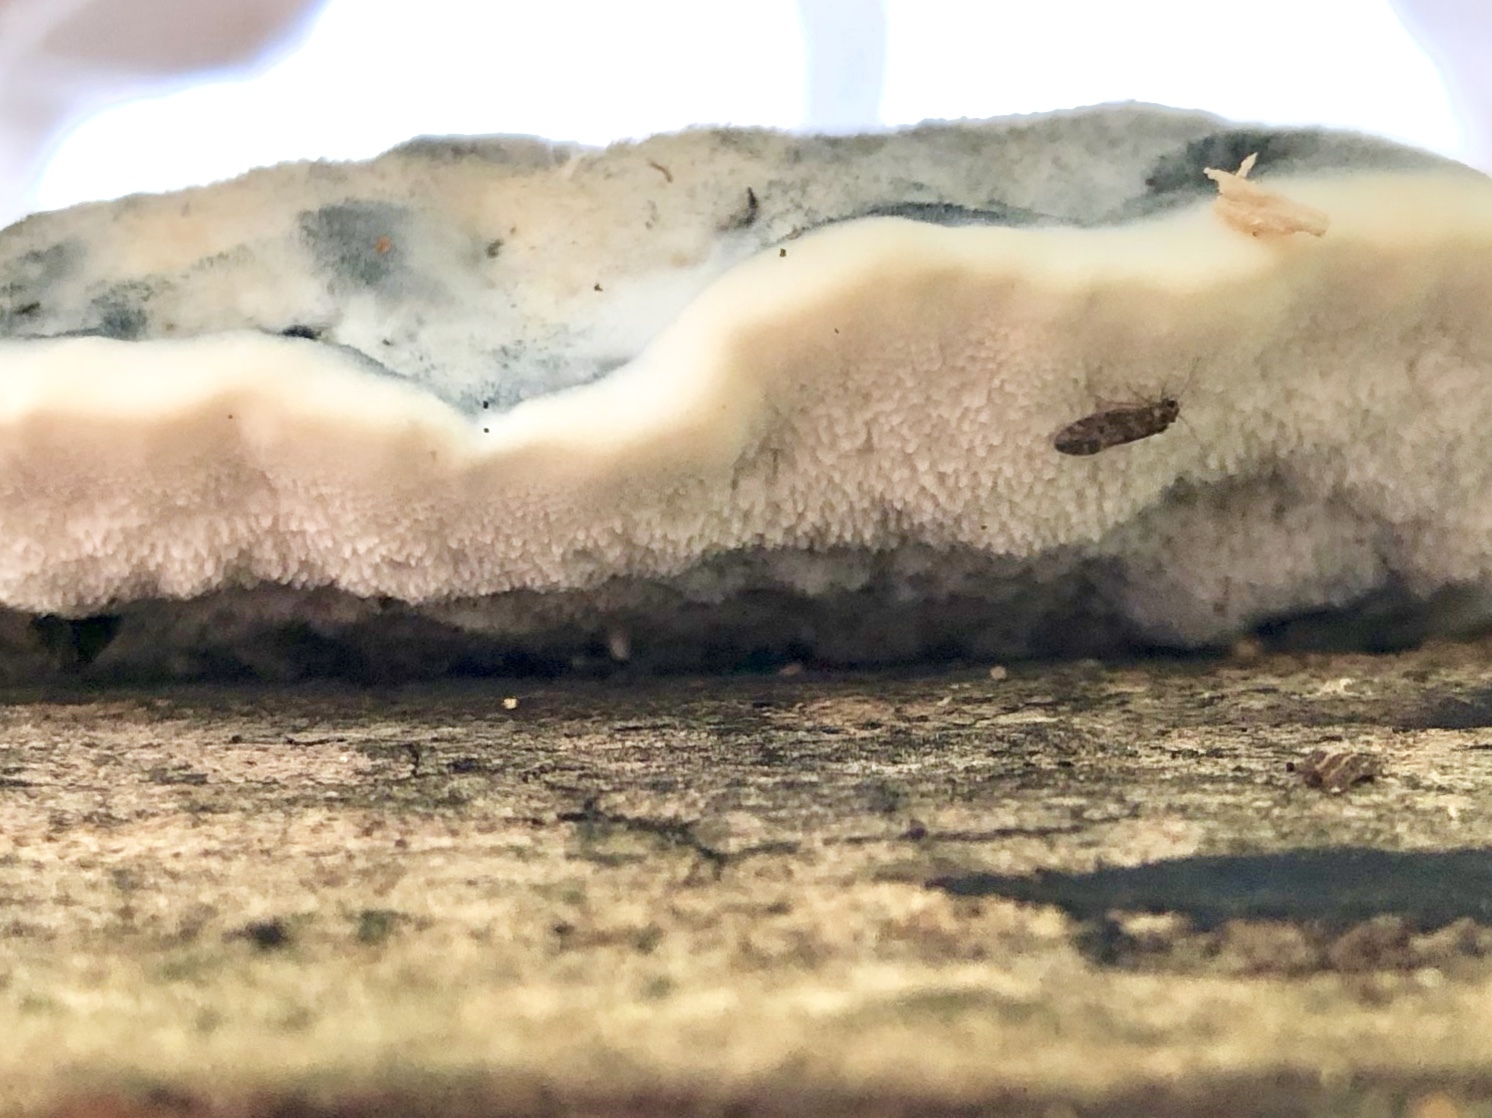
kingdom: Fungi
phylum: Basidiomycota
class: Agaricomycetes
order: Polyporales
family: Polyporaceae
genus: Cyanosporus
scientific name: Cyanosporus livens
